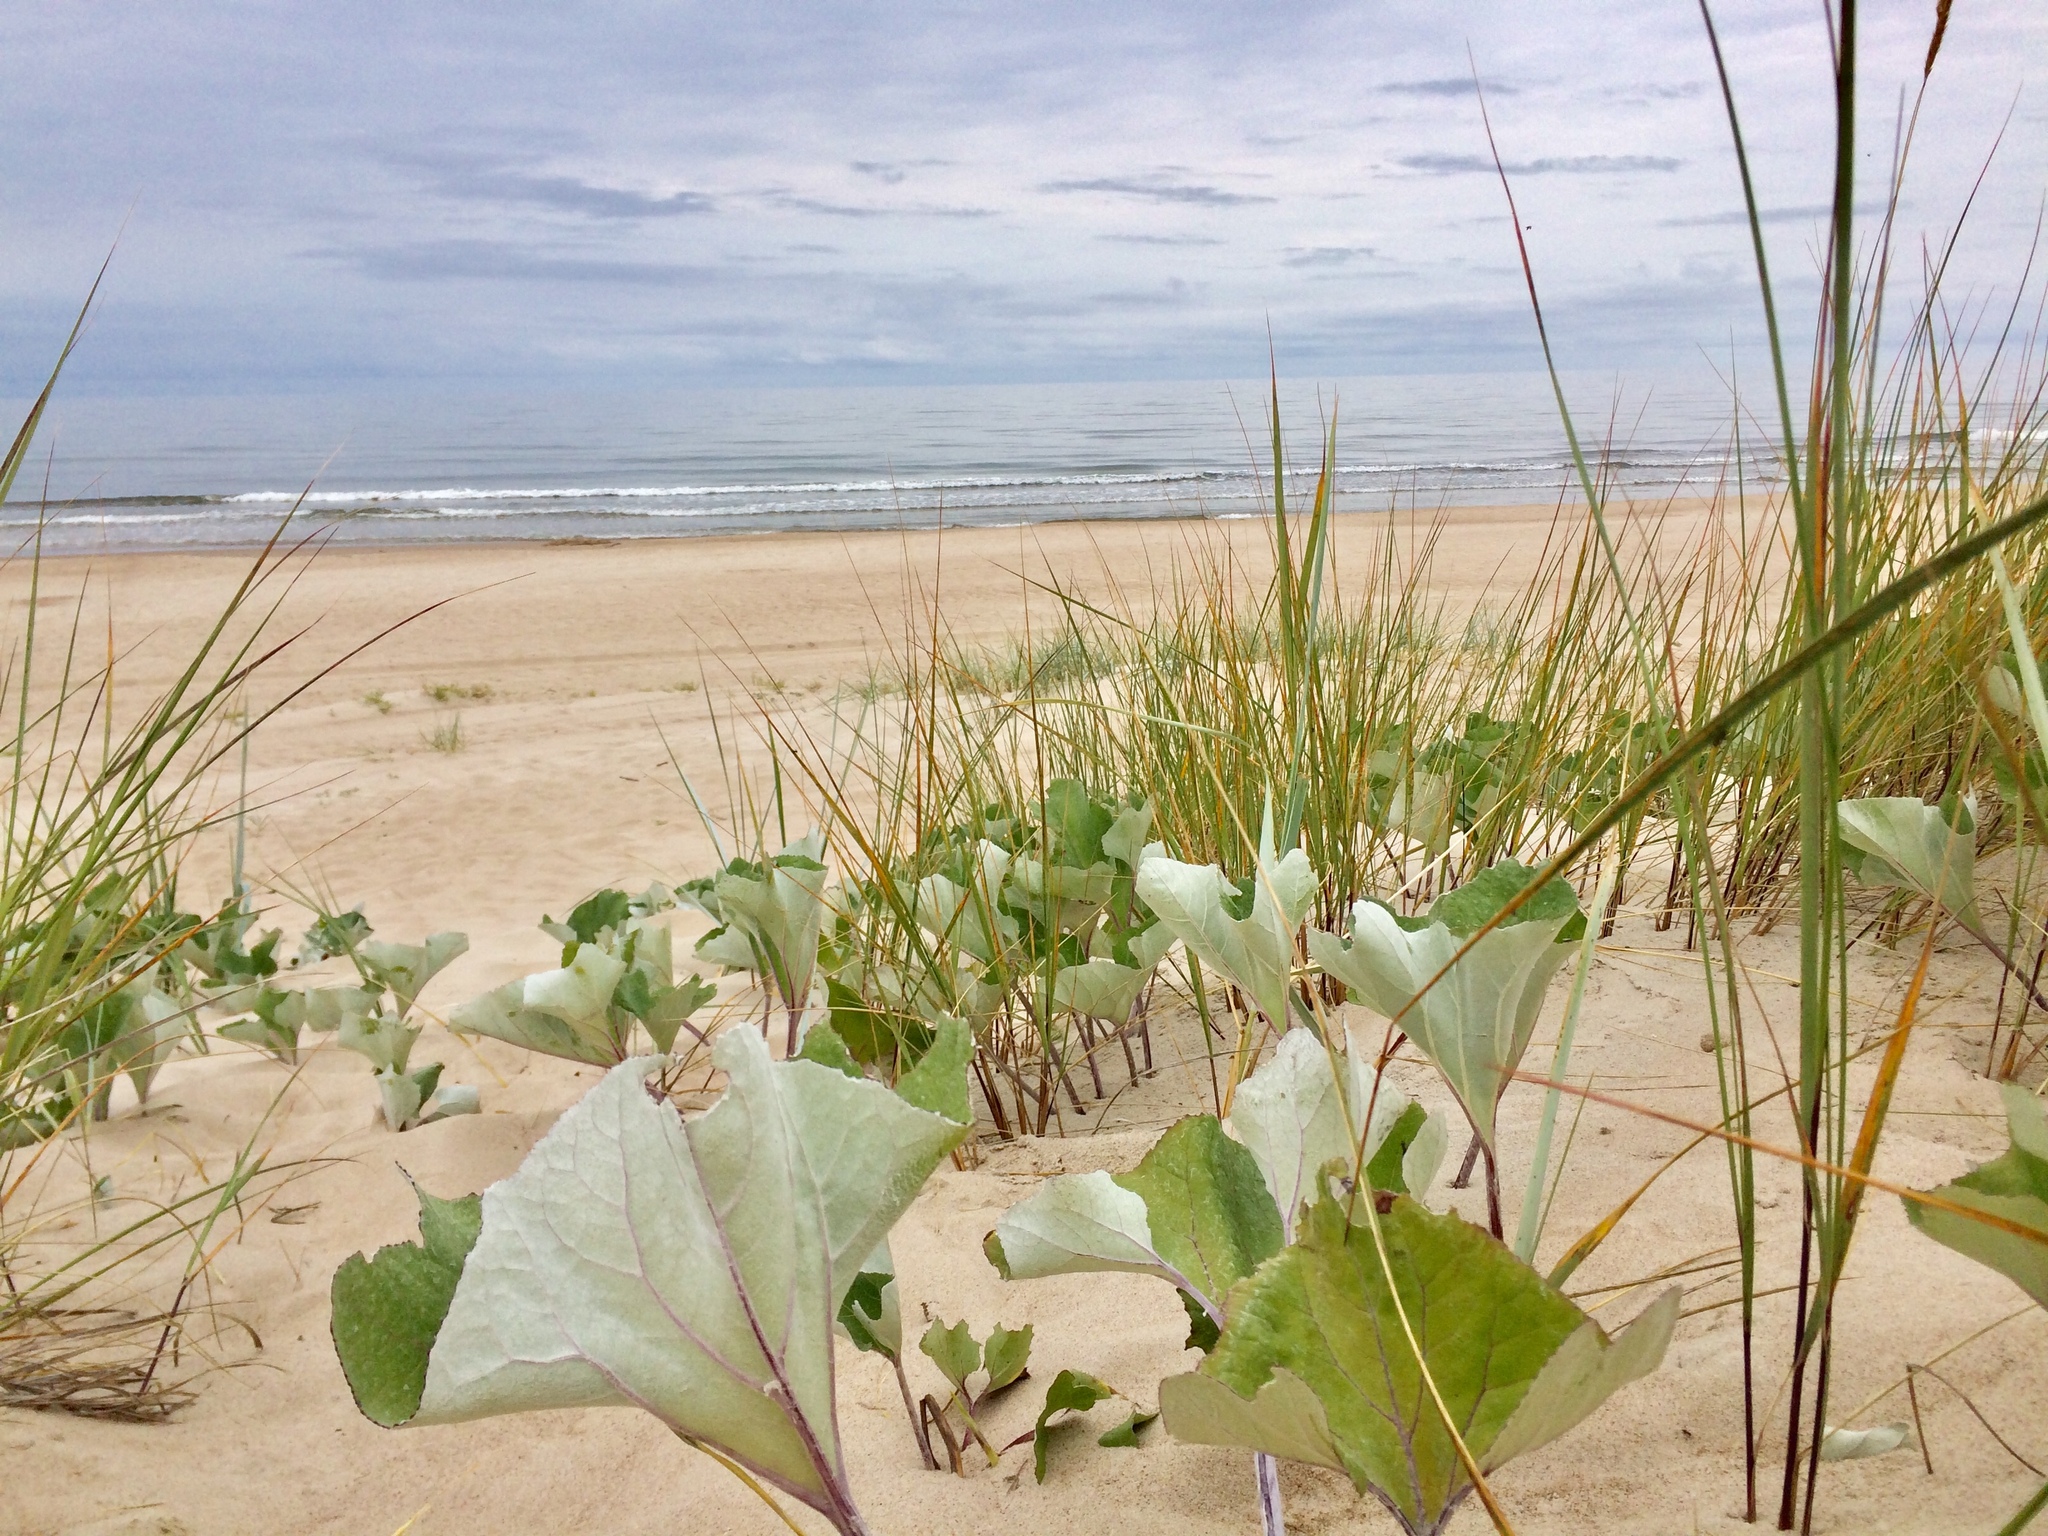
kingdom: Plantae
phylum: Tracheophyta
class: Magnoliopsida
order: Asterales
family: Asteraceae
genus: Petasites
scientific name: Petasites spurius
